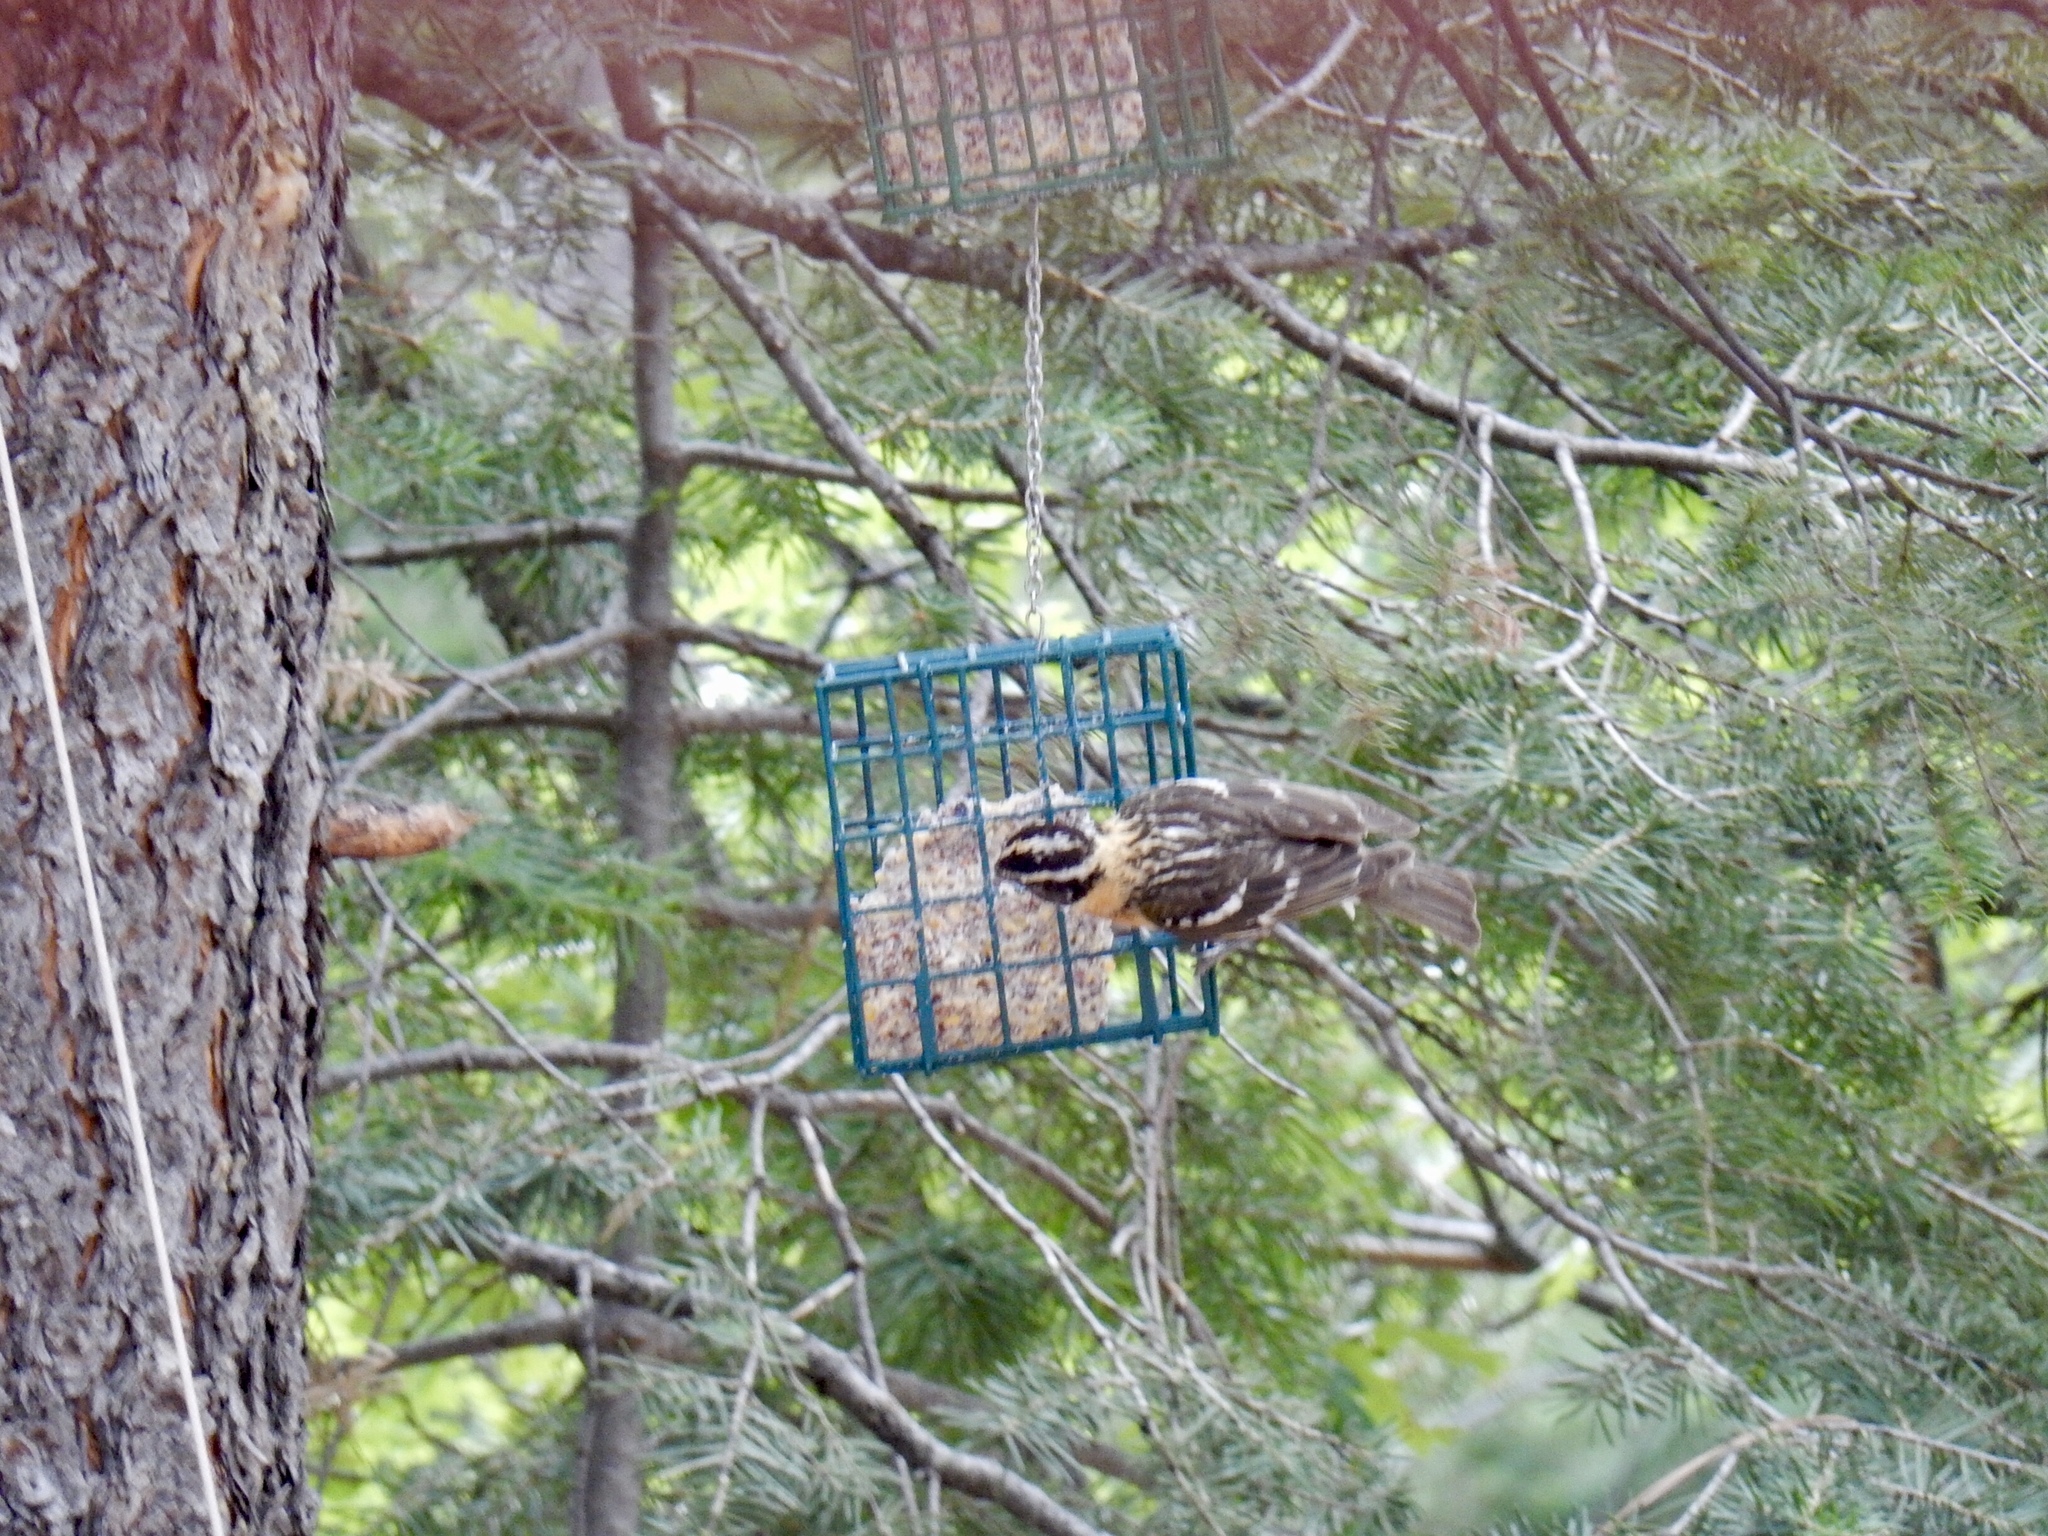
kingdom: Animalia
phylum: Chordata
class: Aves
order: Passeriformes
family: Cardinalidae
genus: Pheucticus
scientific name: Pheucticus melanocephalus
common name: Black-headed grosbeak
